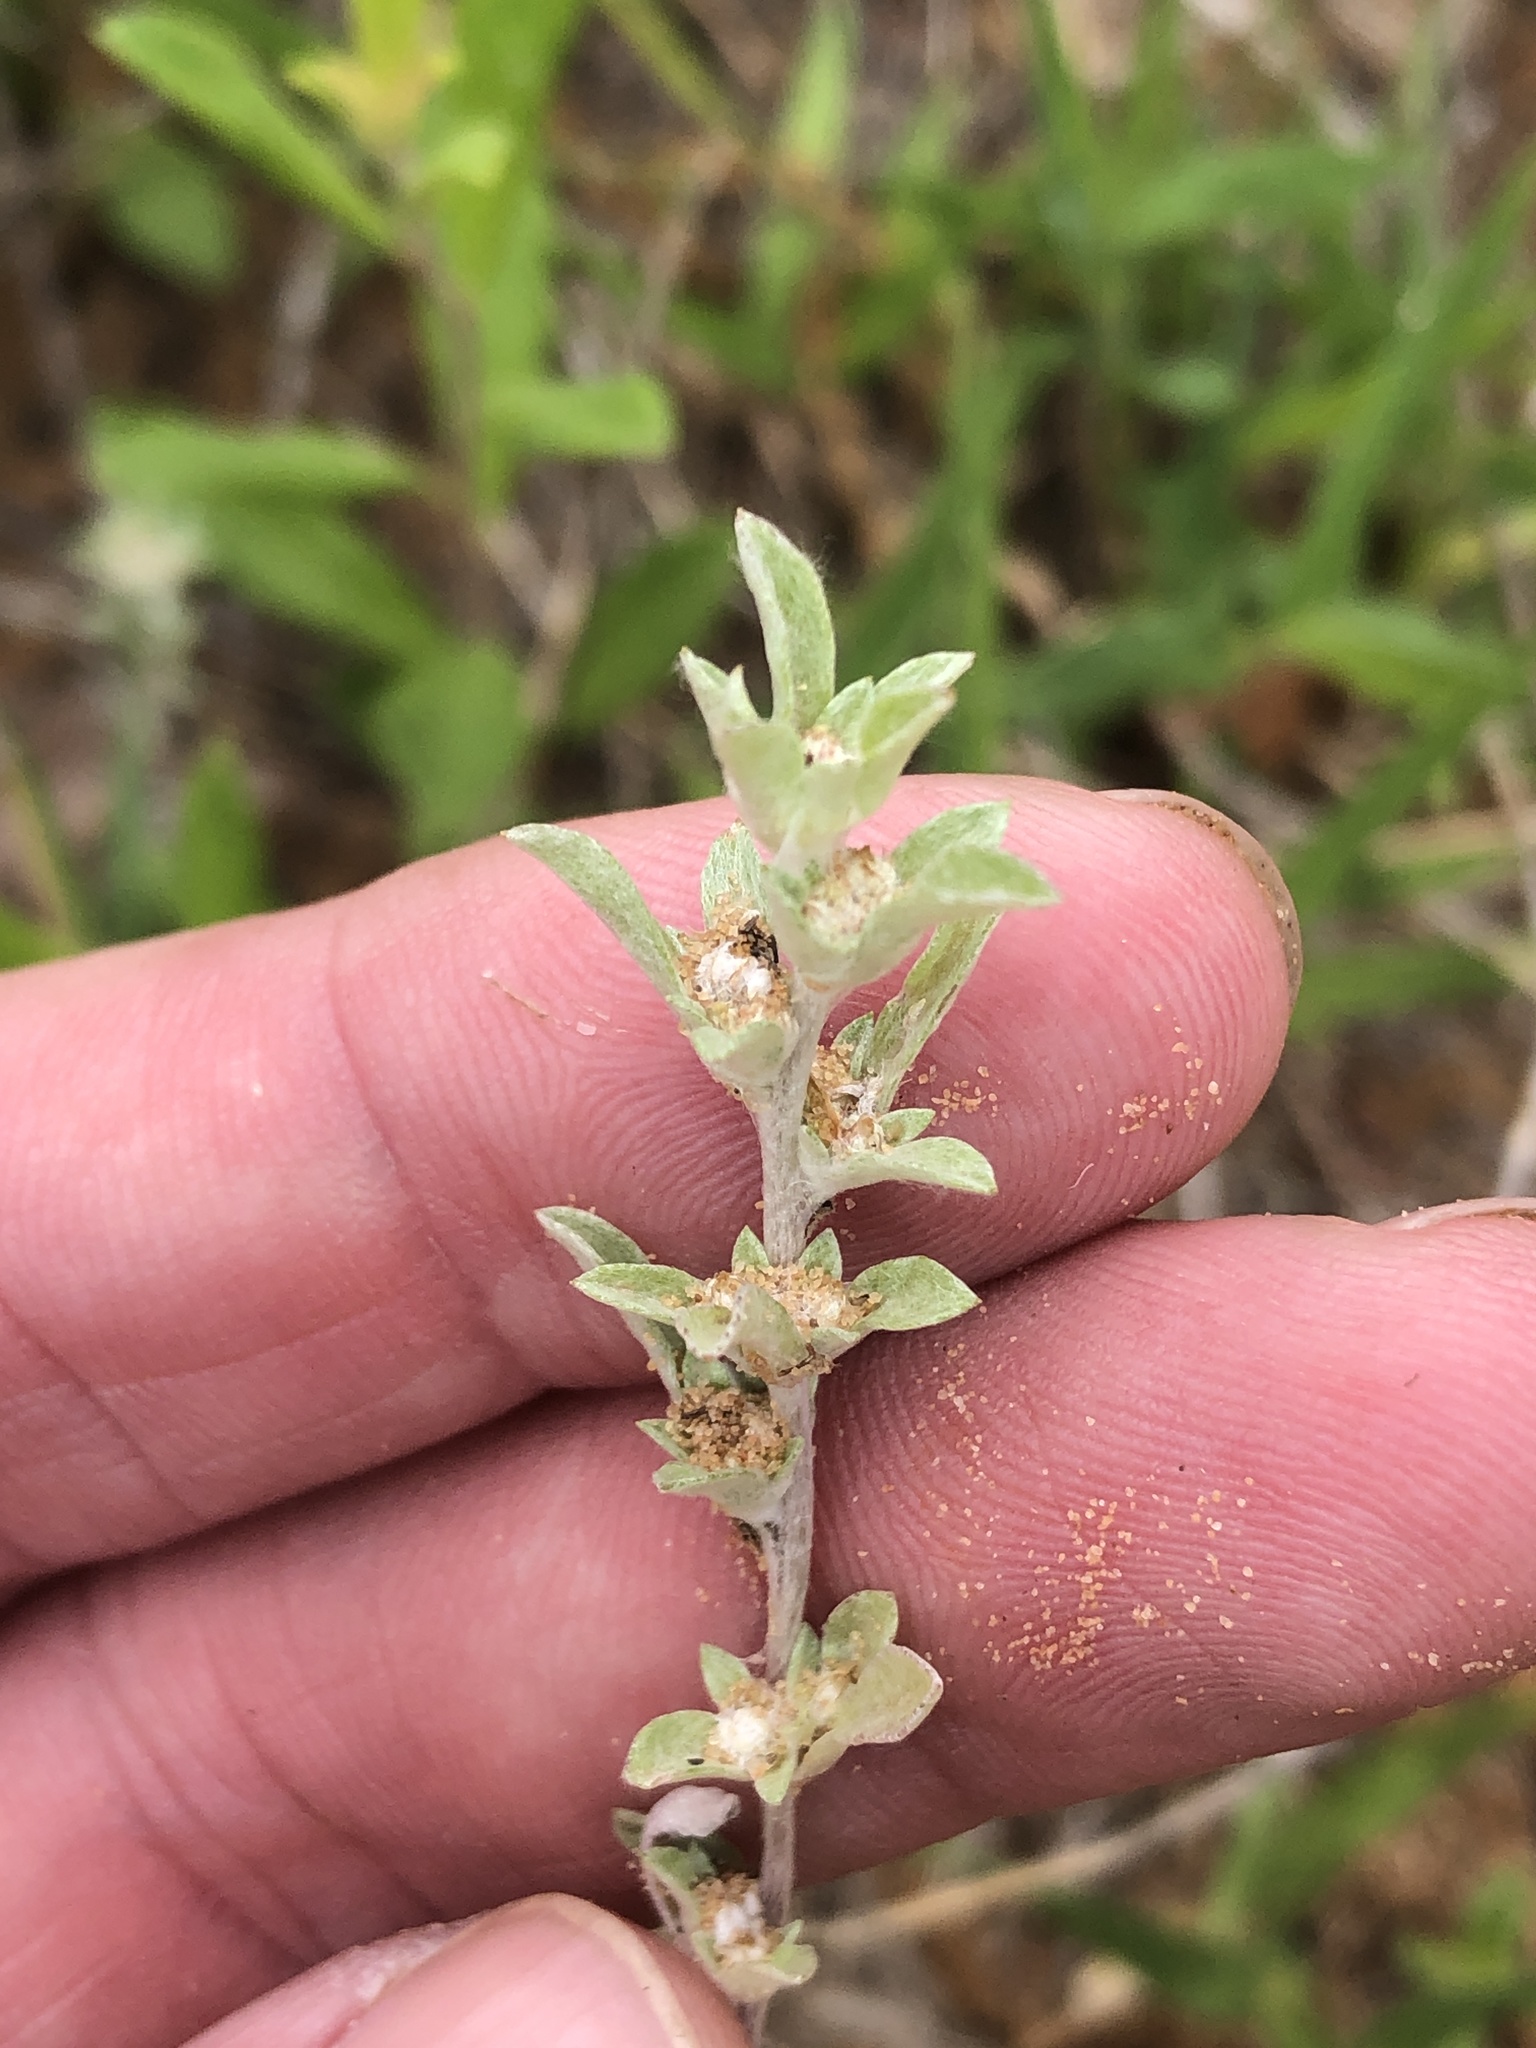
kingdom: Plantae
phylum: Tracheophyta
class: Magnoliopsida
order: Asterales
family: Asteraceae
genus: Diaperia
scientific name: Diaperia candida
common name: Silver rabbit-tobacco
